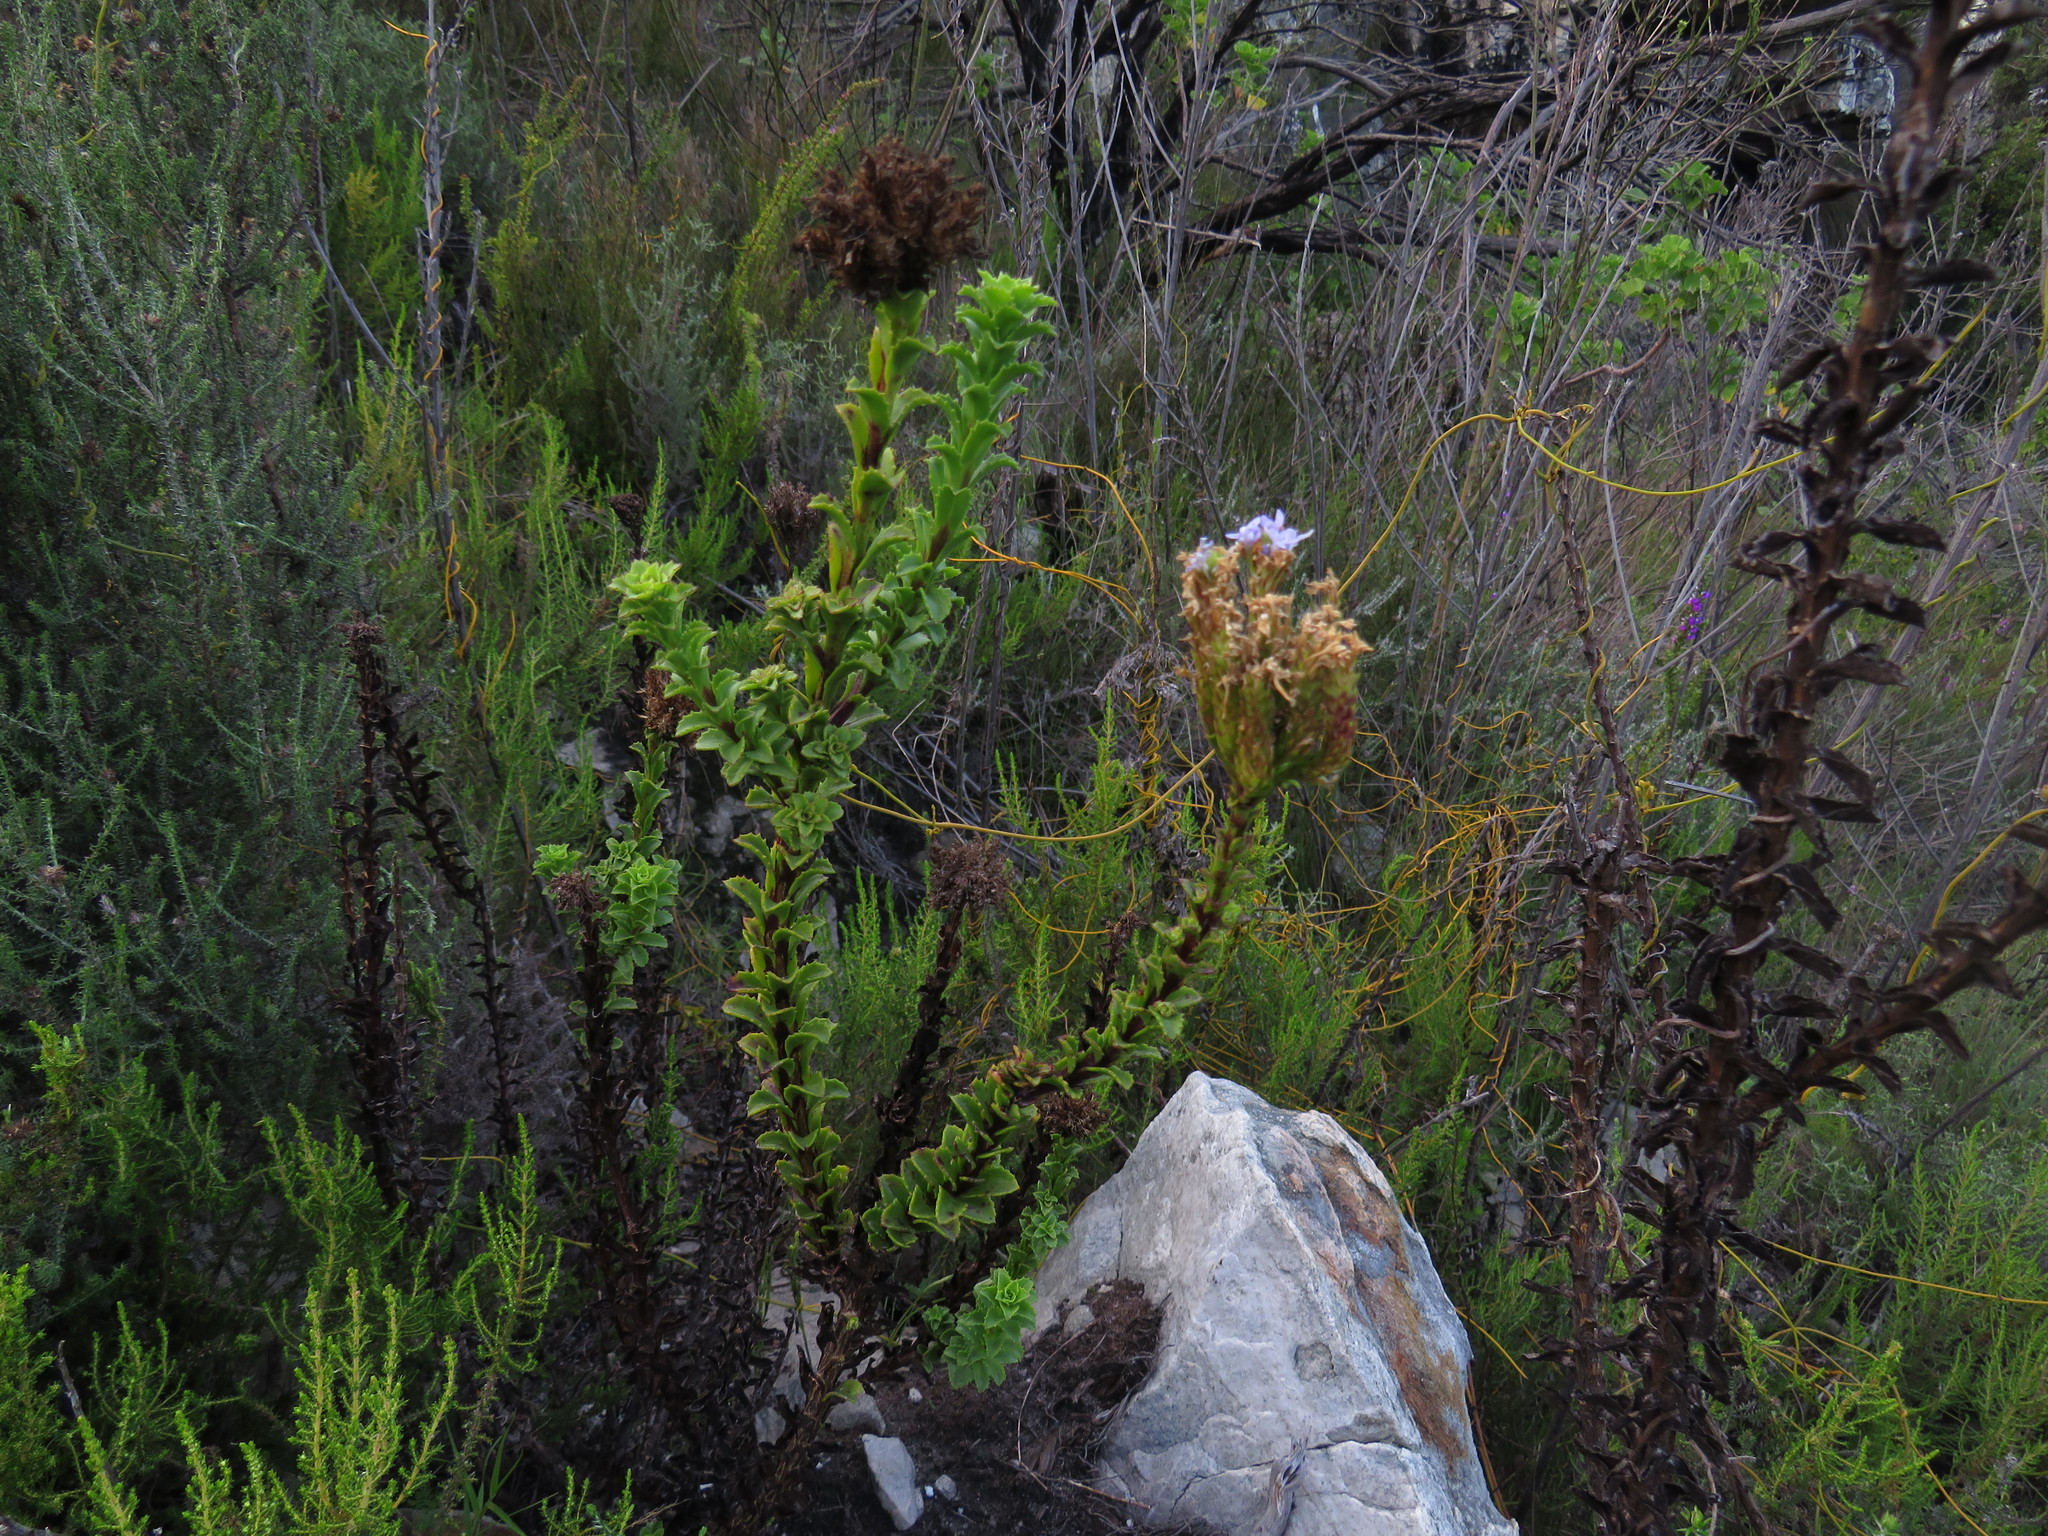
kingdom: Plantae
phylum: Tracheophyta
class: Magnoliopsida
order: Lamiales
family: Scrophulariaceae
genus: Pseudoselago
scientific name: Pseudoselago serrata
